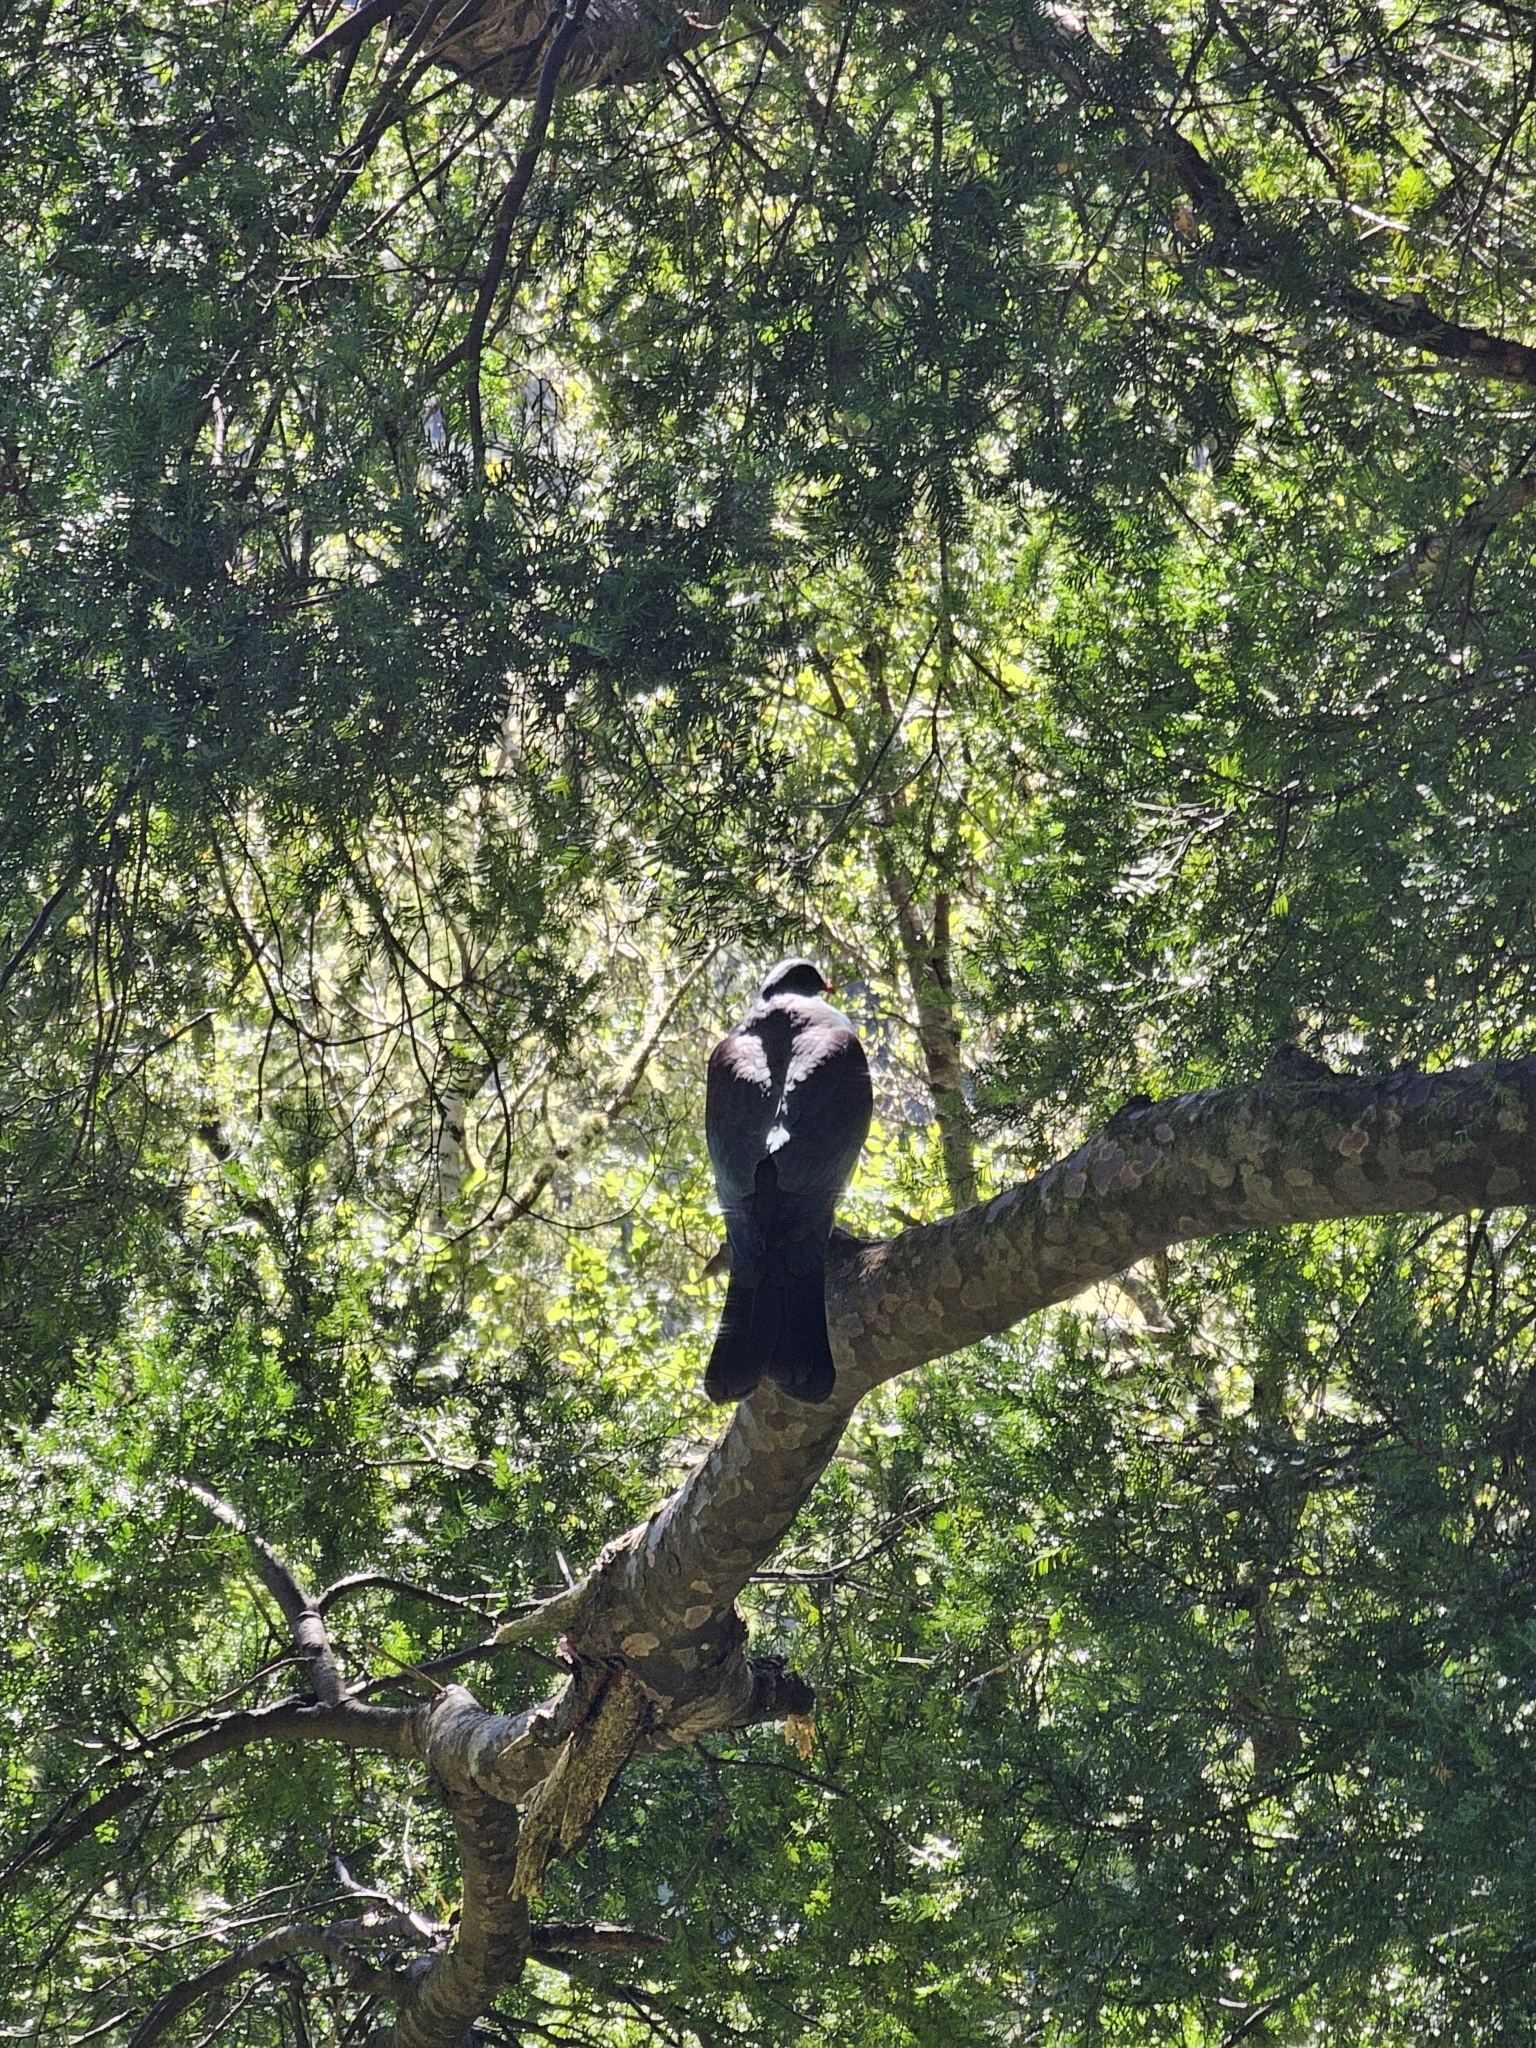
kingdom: Animalia
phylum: Chordata
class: Aves
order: Columbiformes
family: Columbidae
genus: Hemiphaga
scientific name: Hemiphaga novaeseelandiae
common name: New zealand pigeon
